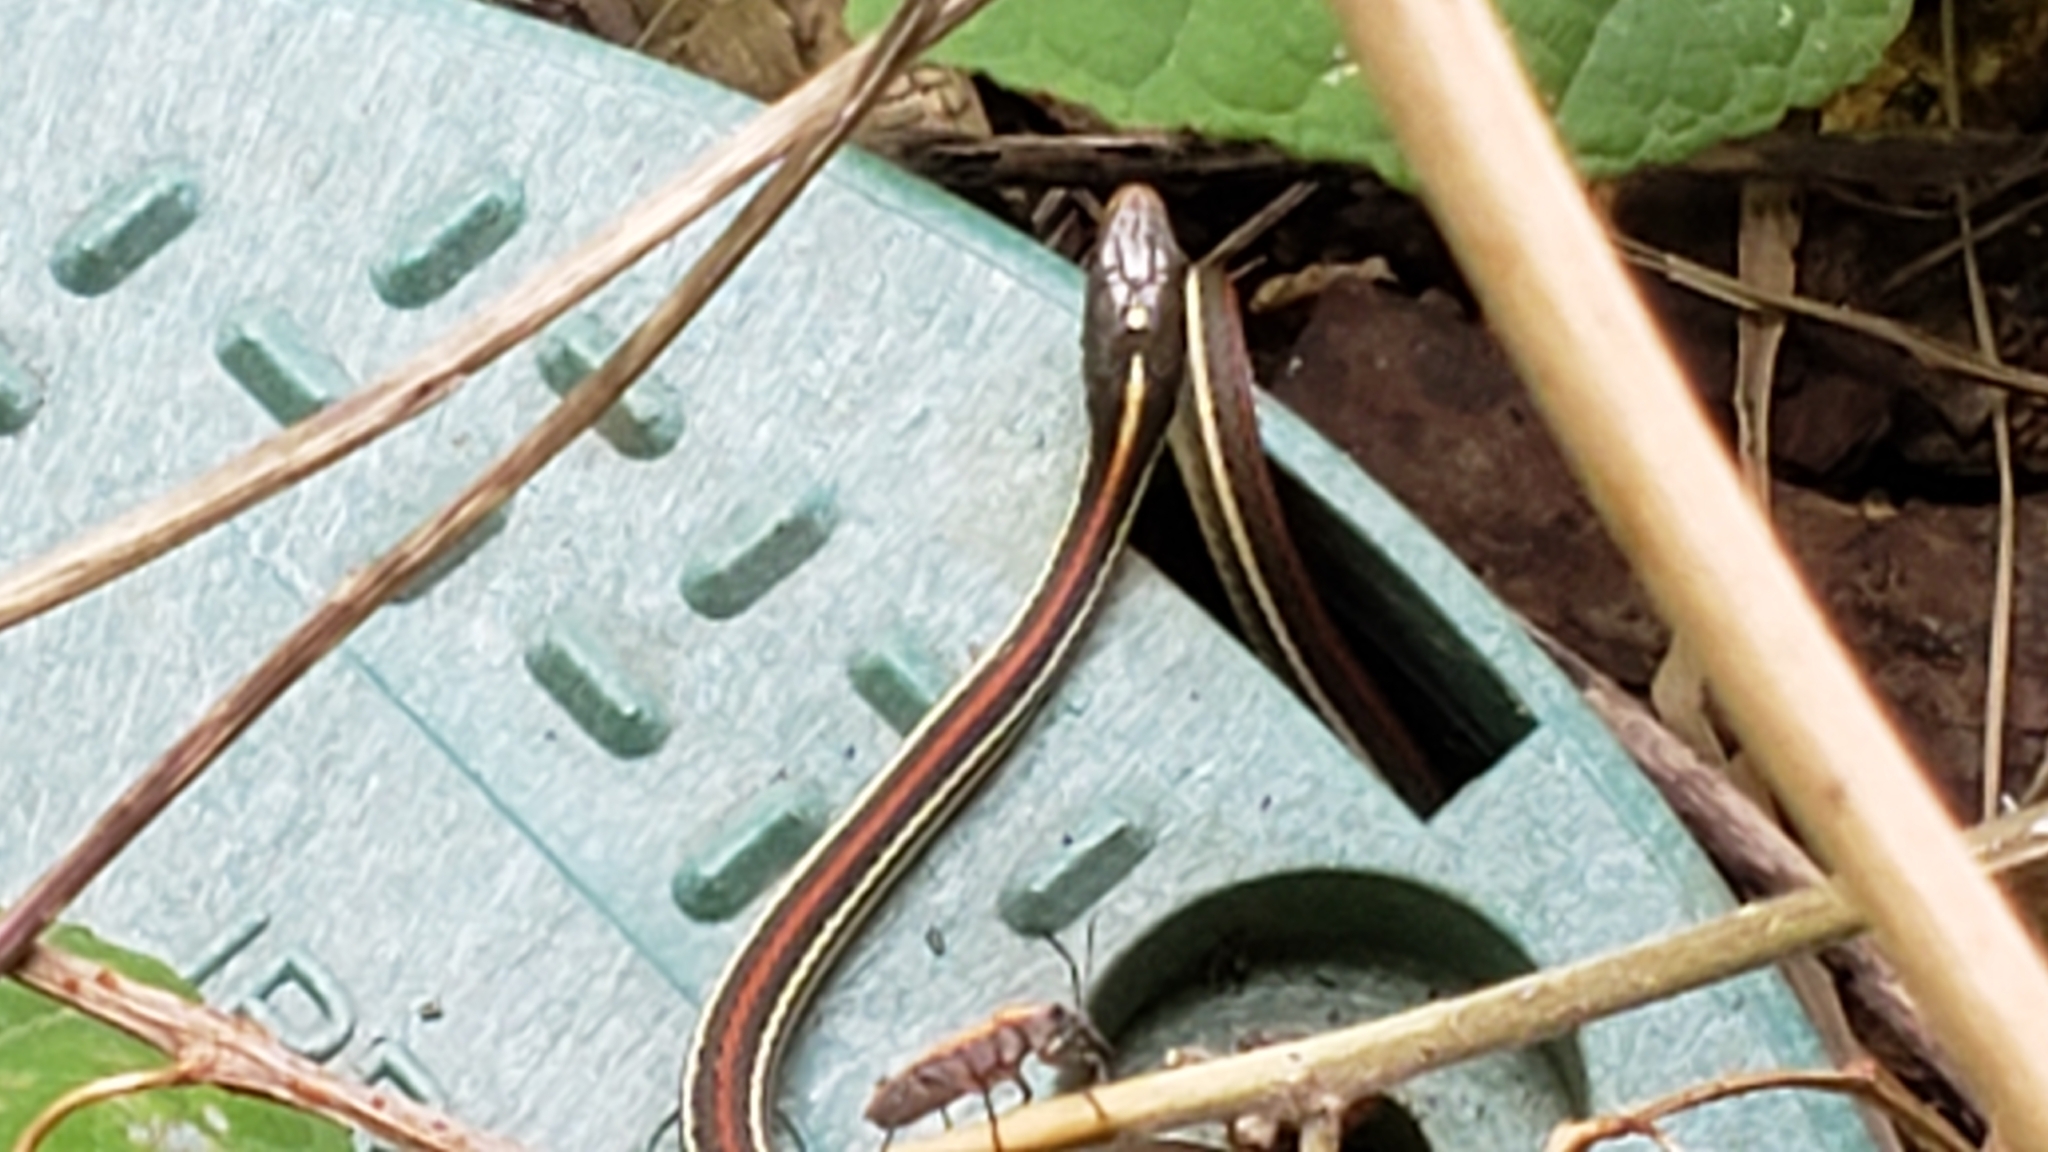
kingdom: Animalia
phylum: Chordata
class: Squamata
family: Colubridae
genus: Thamnophis
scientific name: Thamnophis proximus
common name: Western ribbon snake
